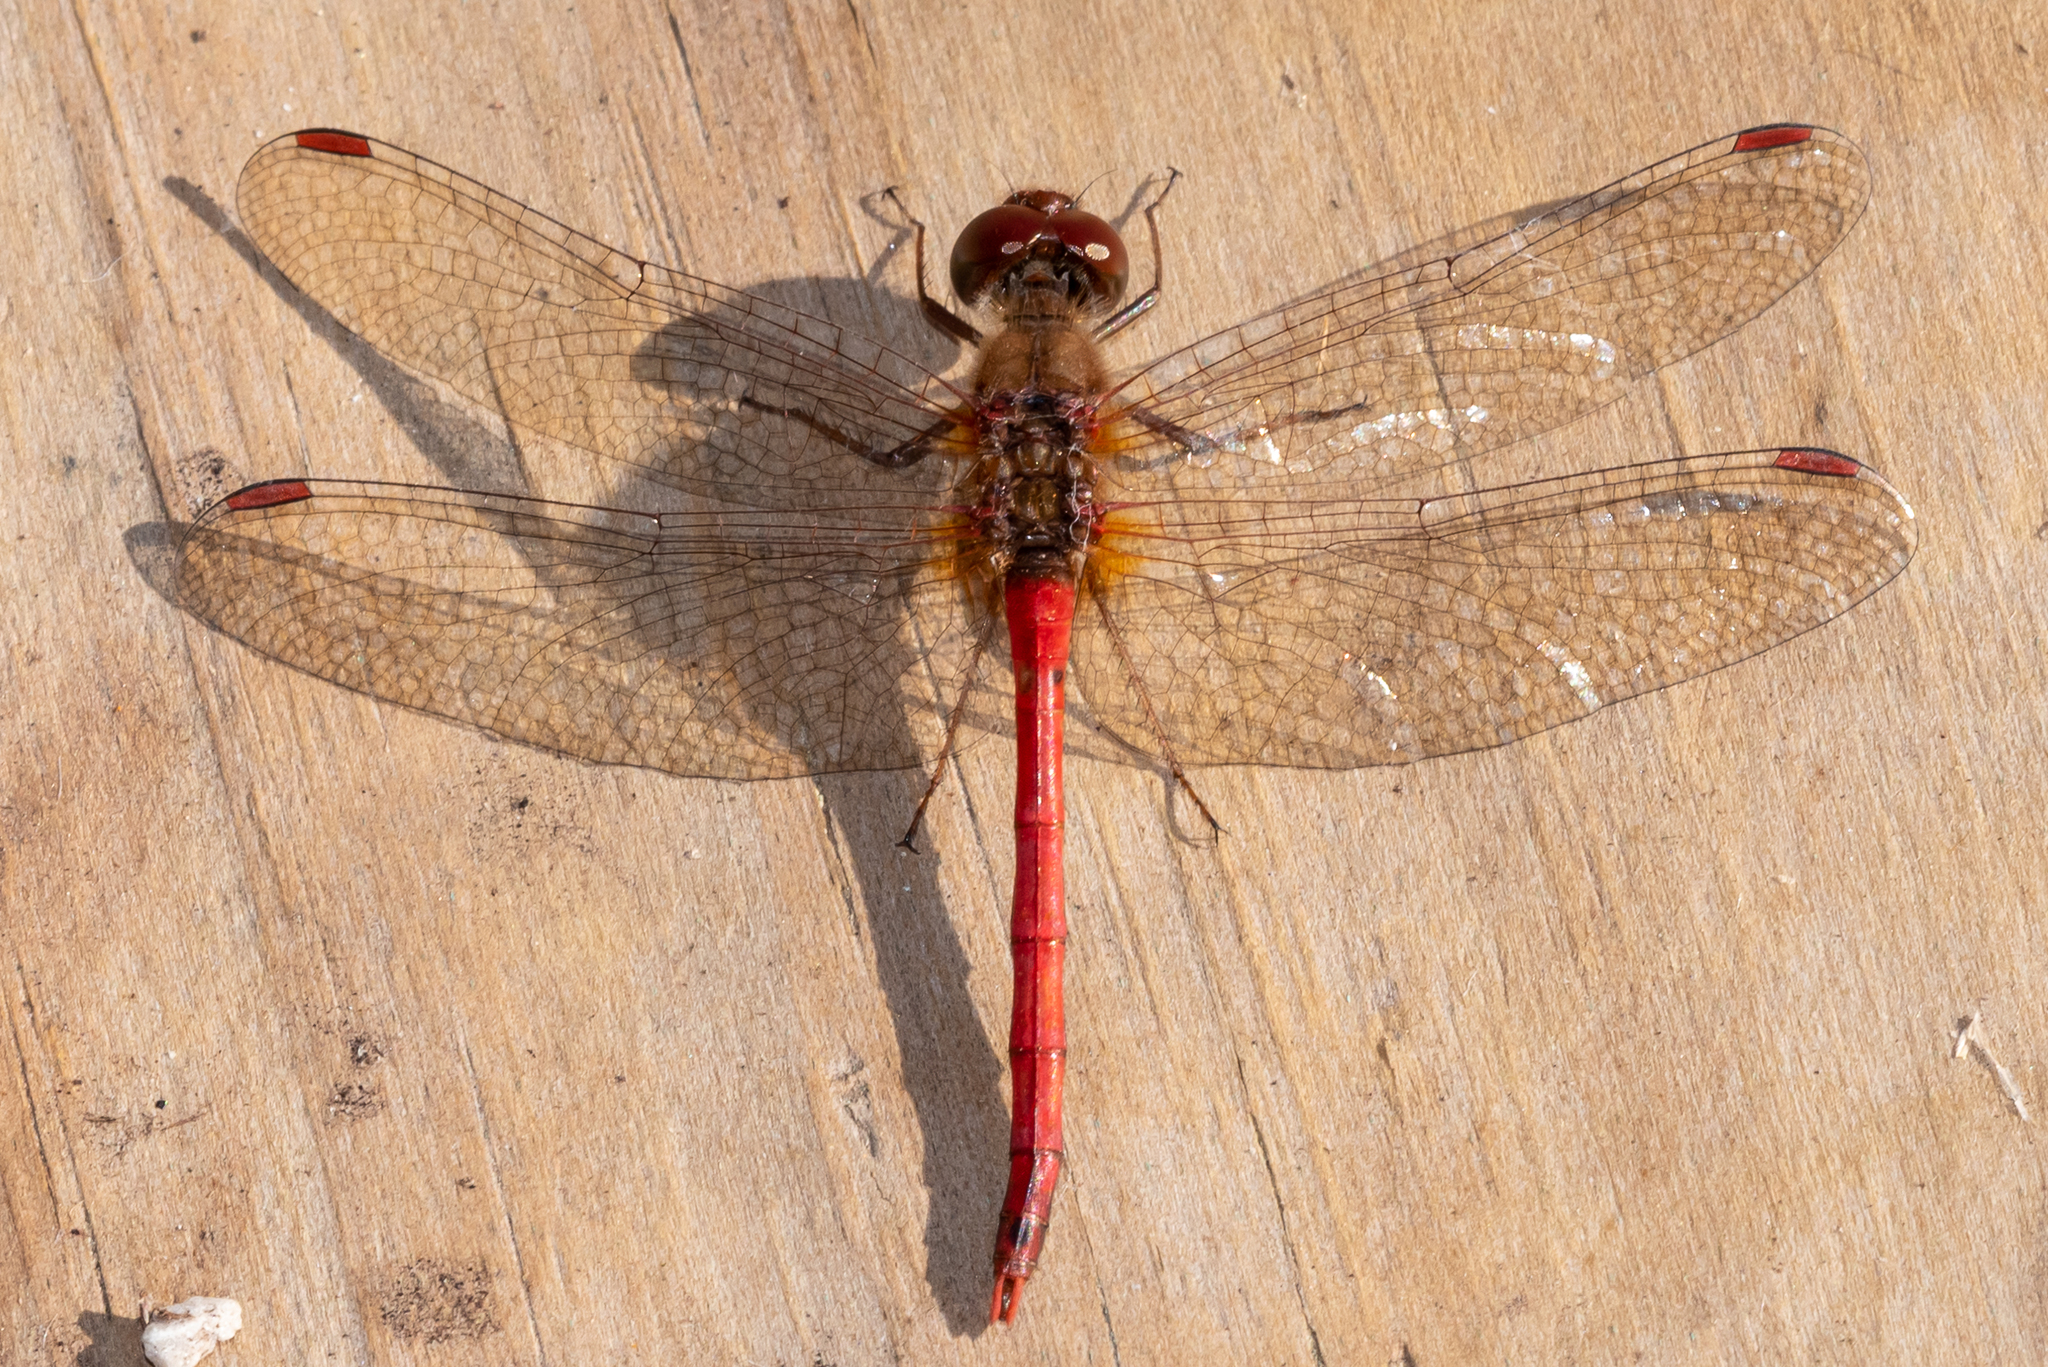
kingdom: Animalia
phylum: Arthropoda
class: Insecta
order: Odonata
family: Libellulidae
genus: Sympetrum
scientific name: Sympetrum vicinum
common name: Autumn meadowhawk
